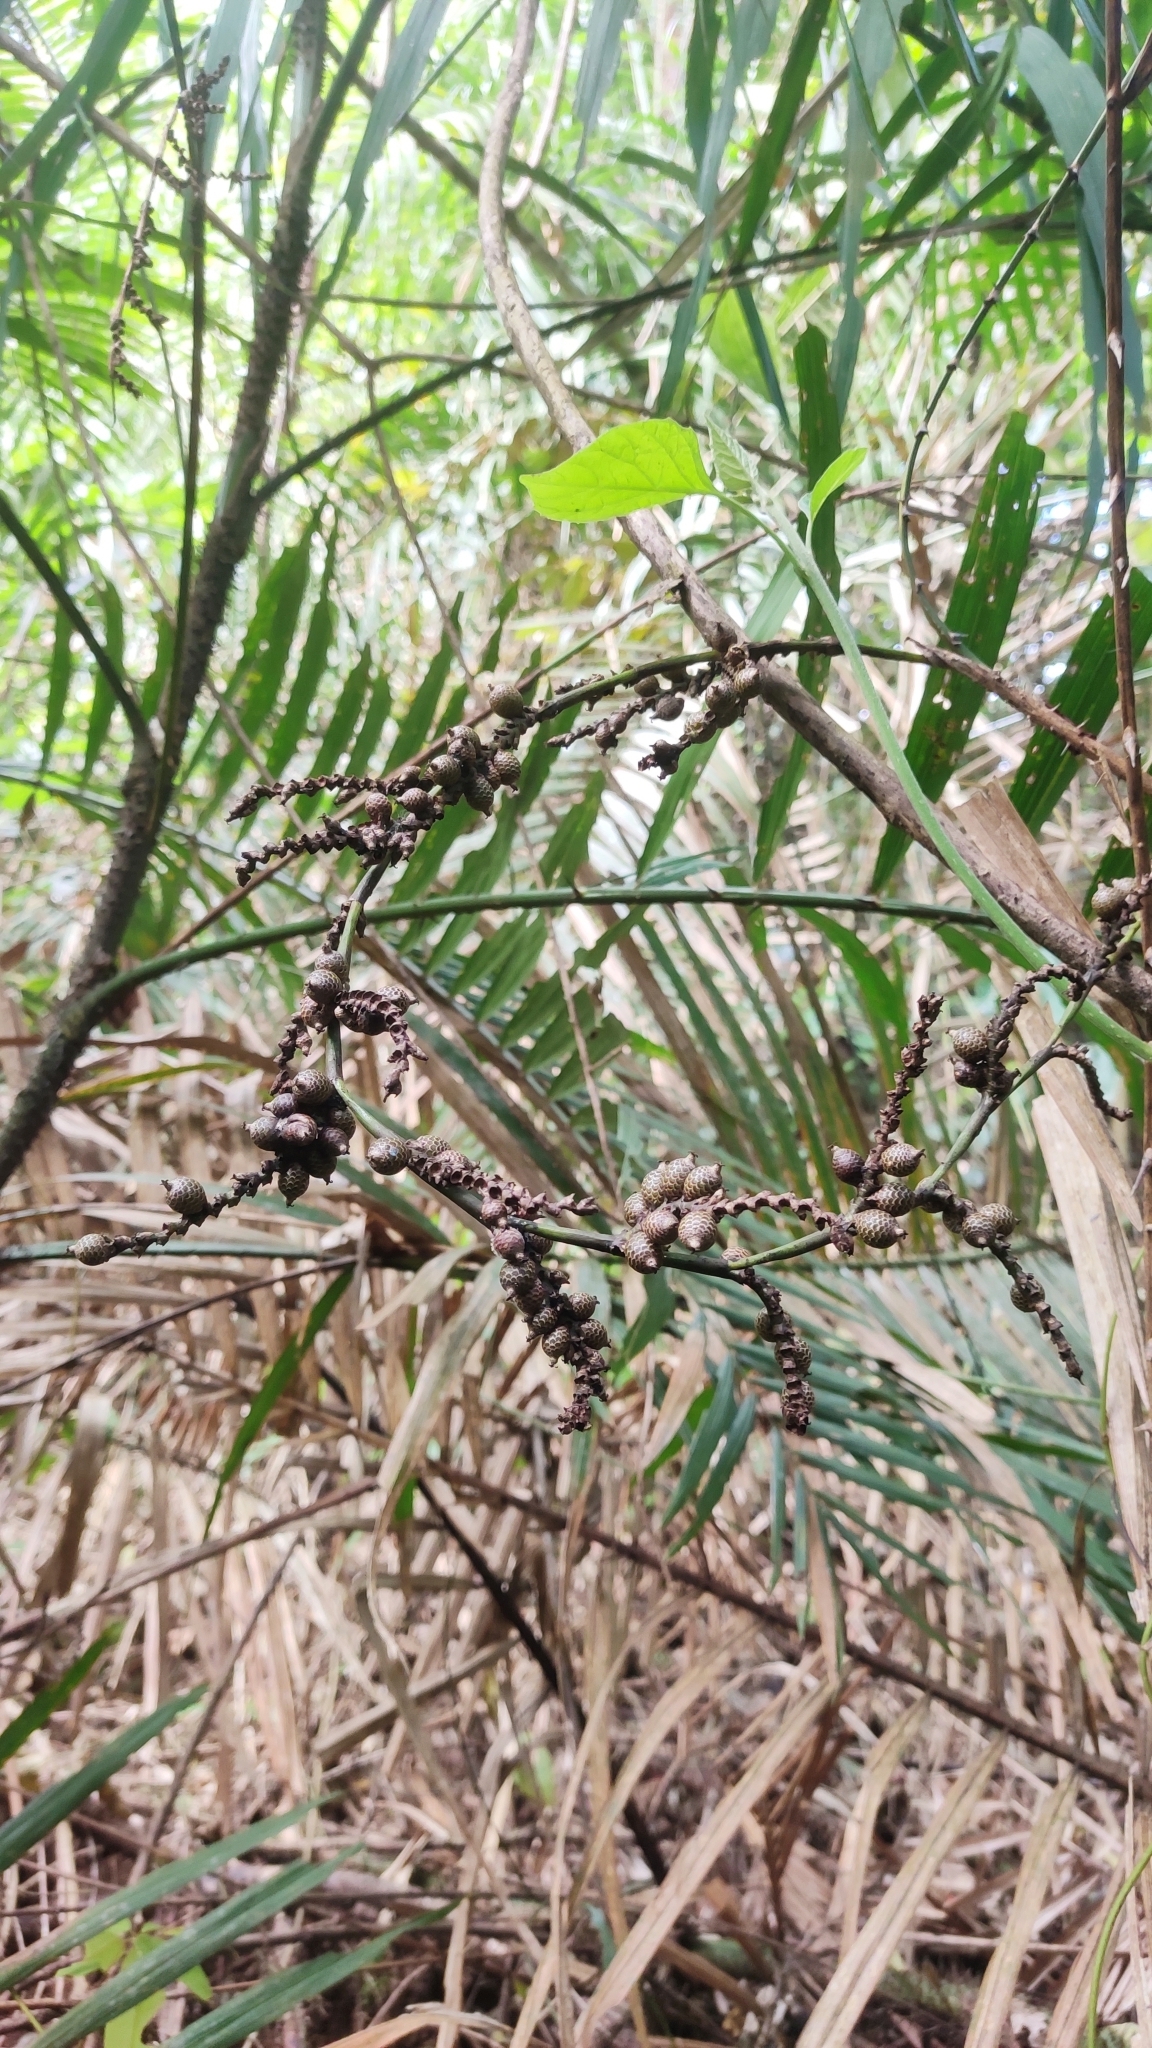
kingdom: Plantae
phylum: Tracheophyta
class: Liliopsida
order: Arecales
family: Arecaceae
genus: Calamus
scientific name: Calamus
